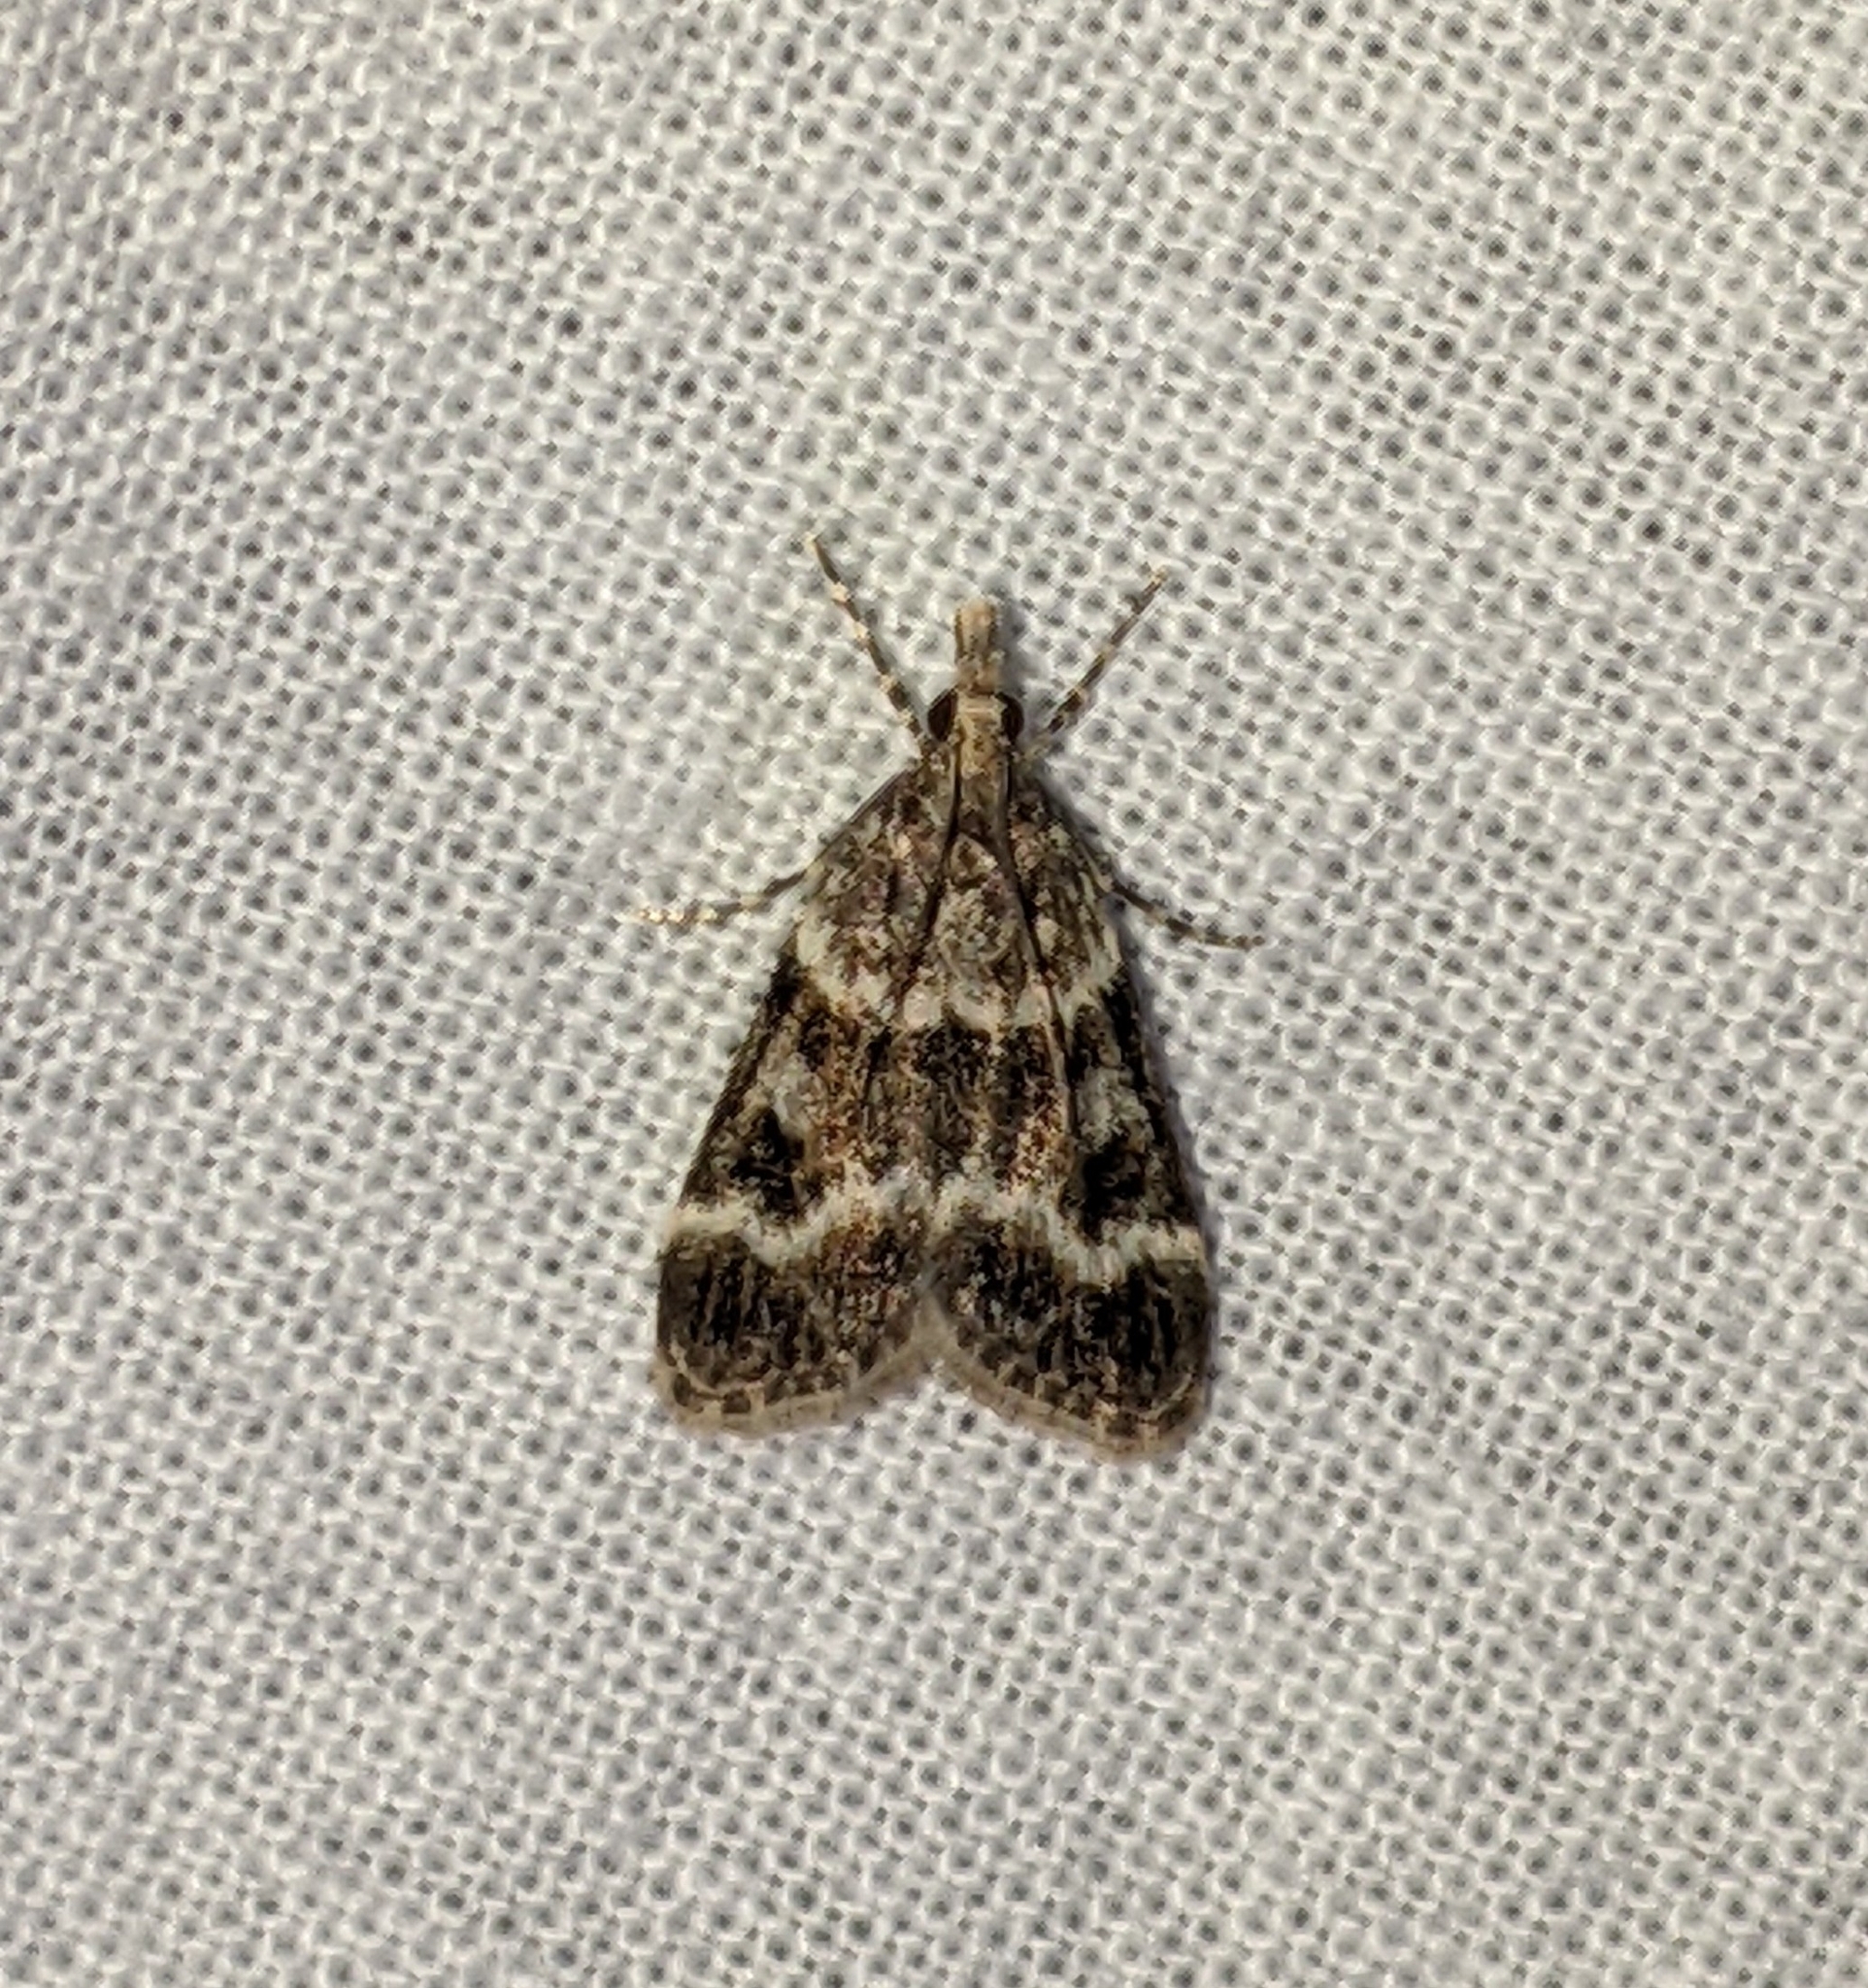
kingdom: Animalia
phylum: Arthropoda
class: Insecta
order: Lepidoptera
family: Crambidae
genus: Eudonia
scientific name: Eudonia commortalis
